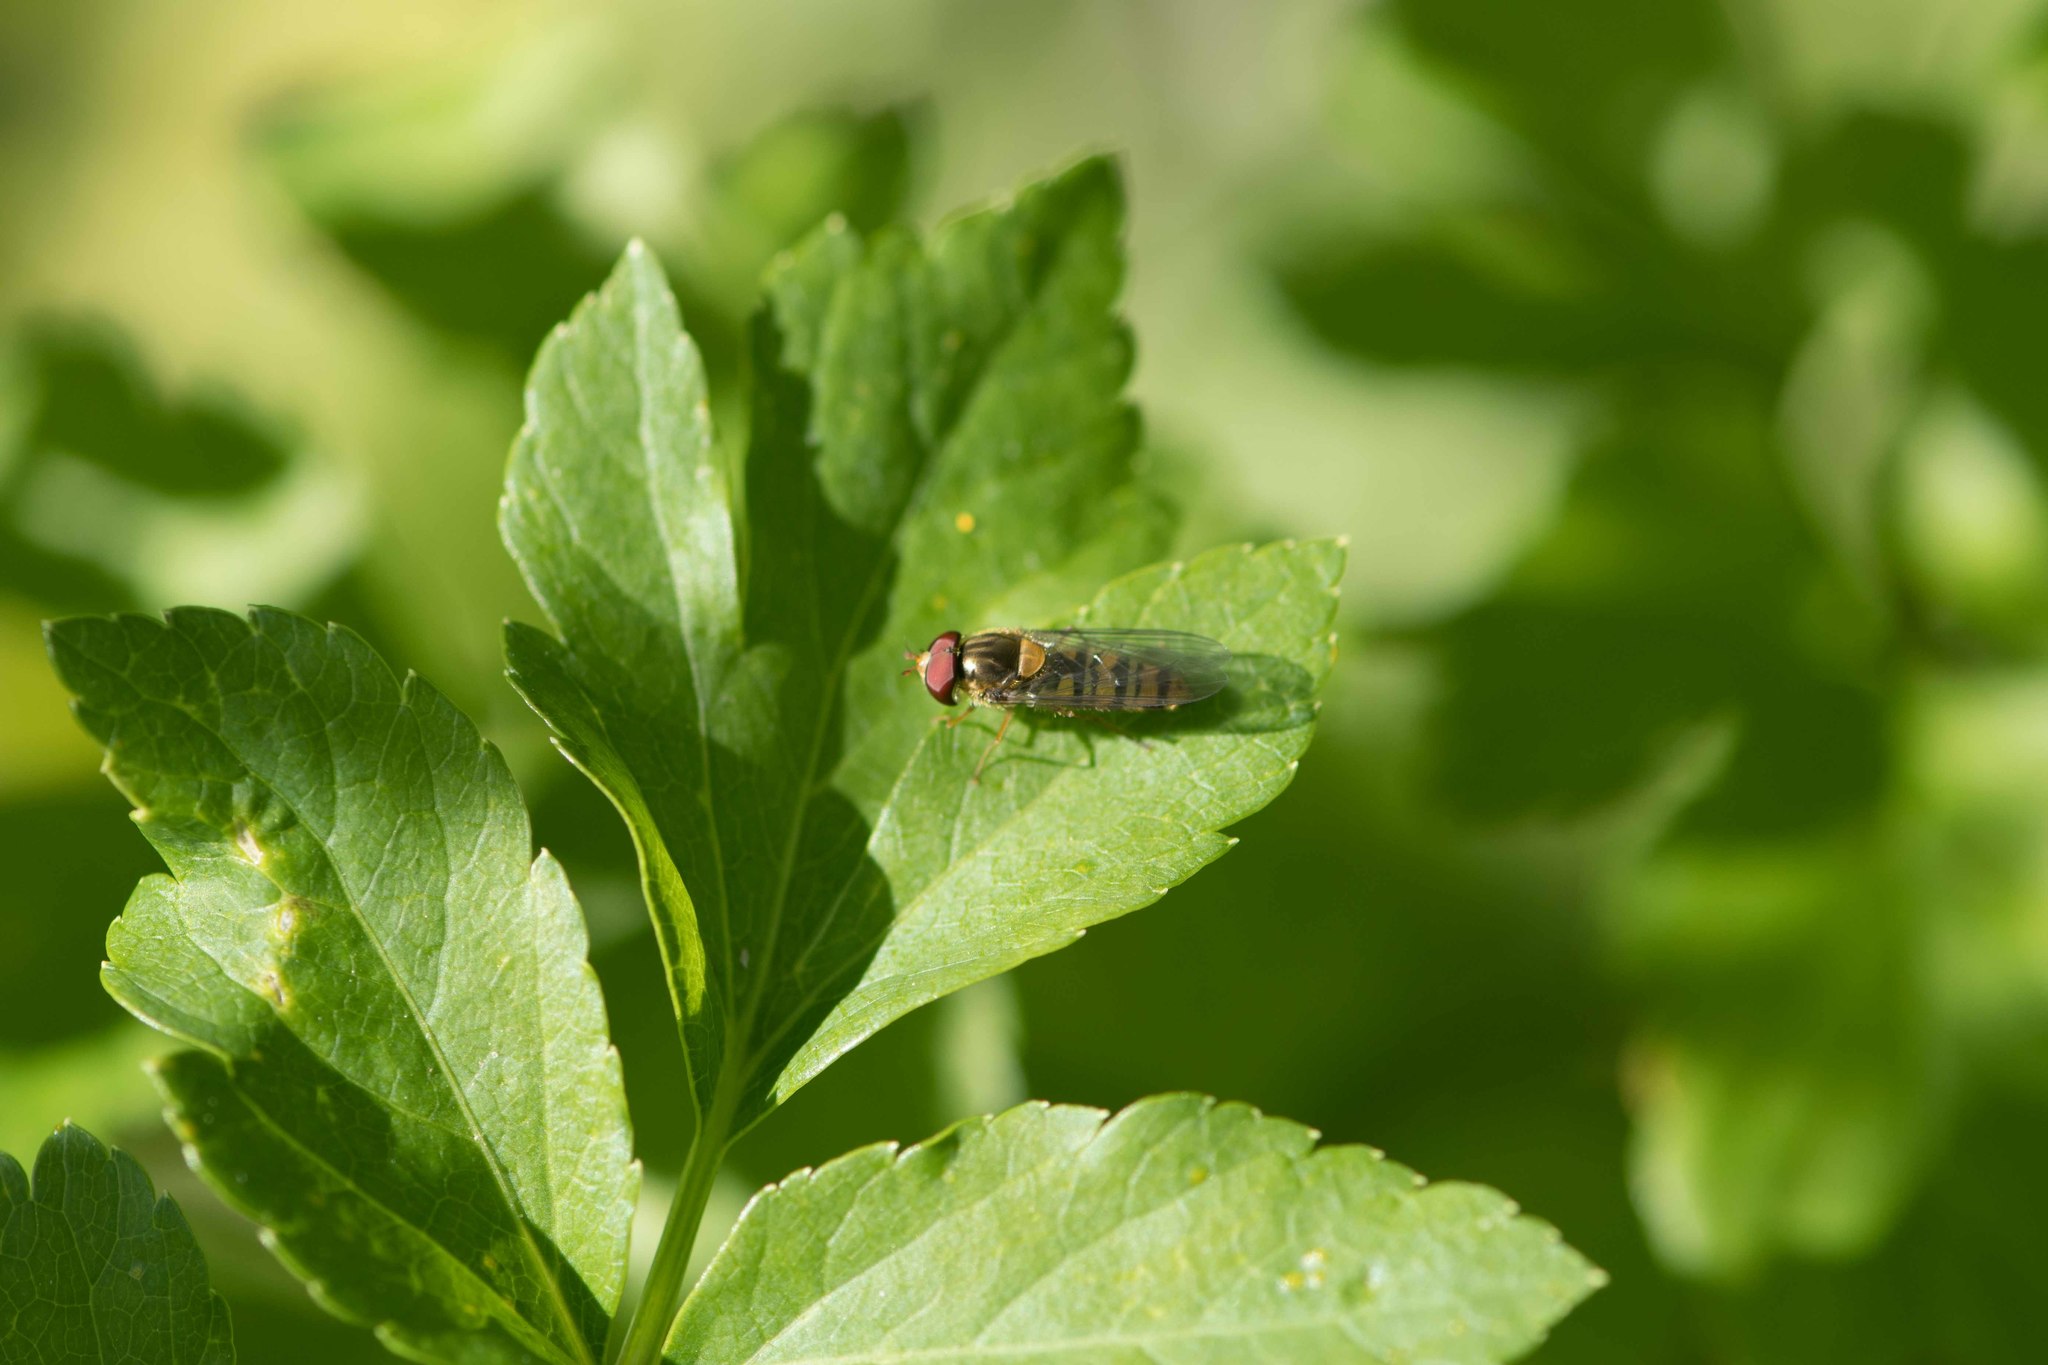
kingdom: Animalia
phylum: Arthropoda
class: Insecta
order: Diptera
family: Syrphidae
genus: Episyrphus
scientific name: Episyrphus balteatus
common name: Marmalade hoverfly
